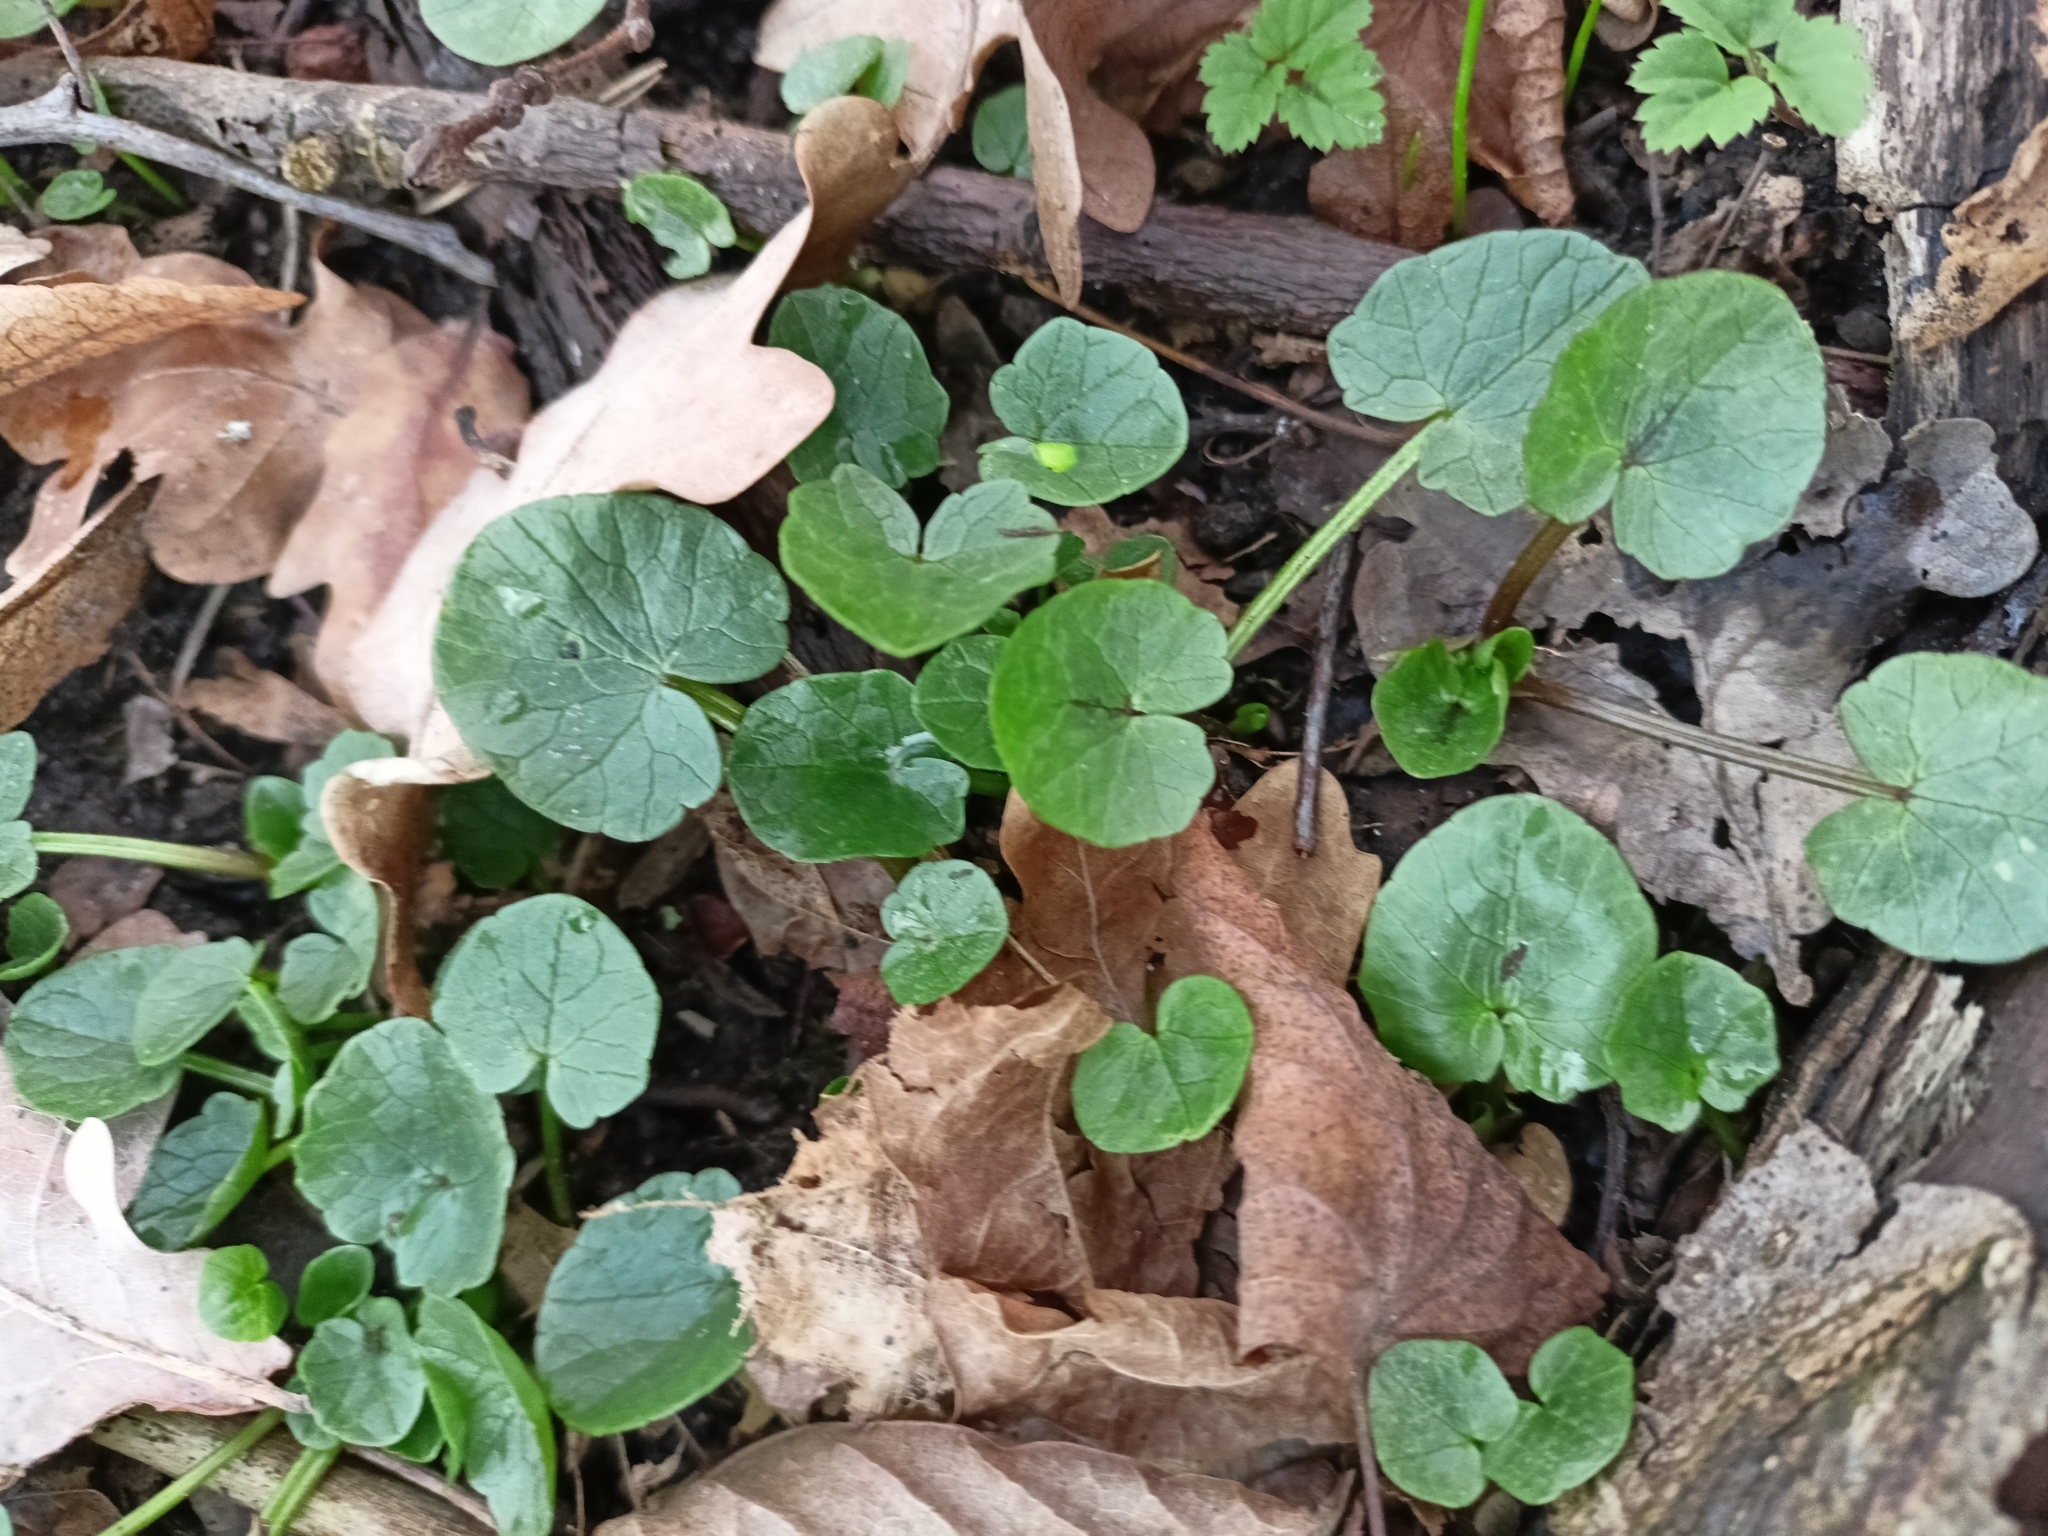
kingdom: Plantae
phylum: Tracheophyta
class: Magnoliopsida
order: Ranunculales
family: Ranunculaceae
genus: Ficaria
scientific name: Ficaria verna
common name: Lesser celandine
